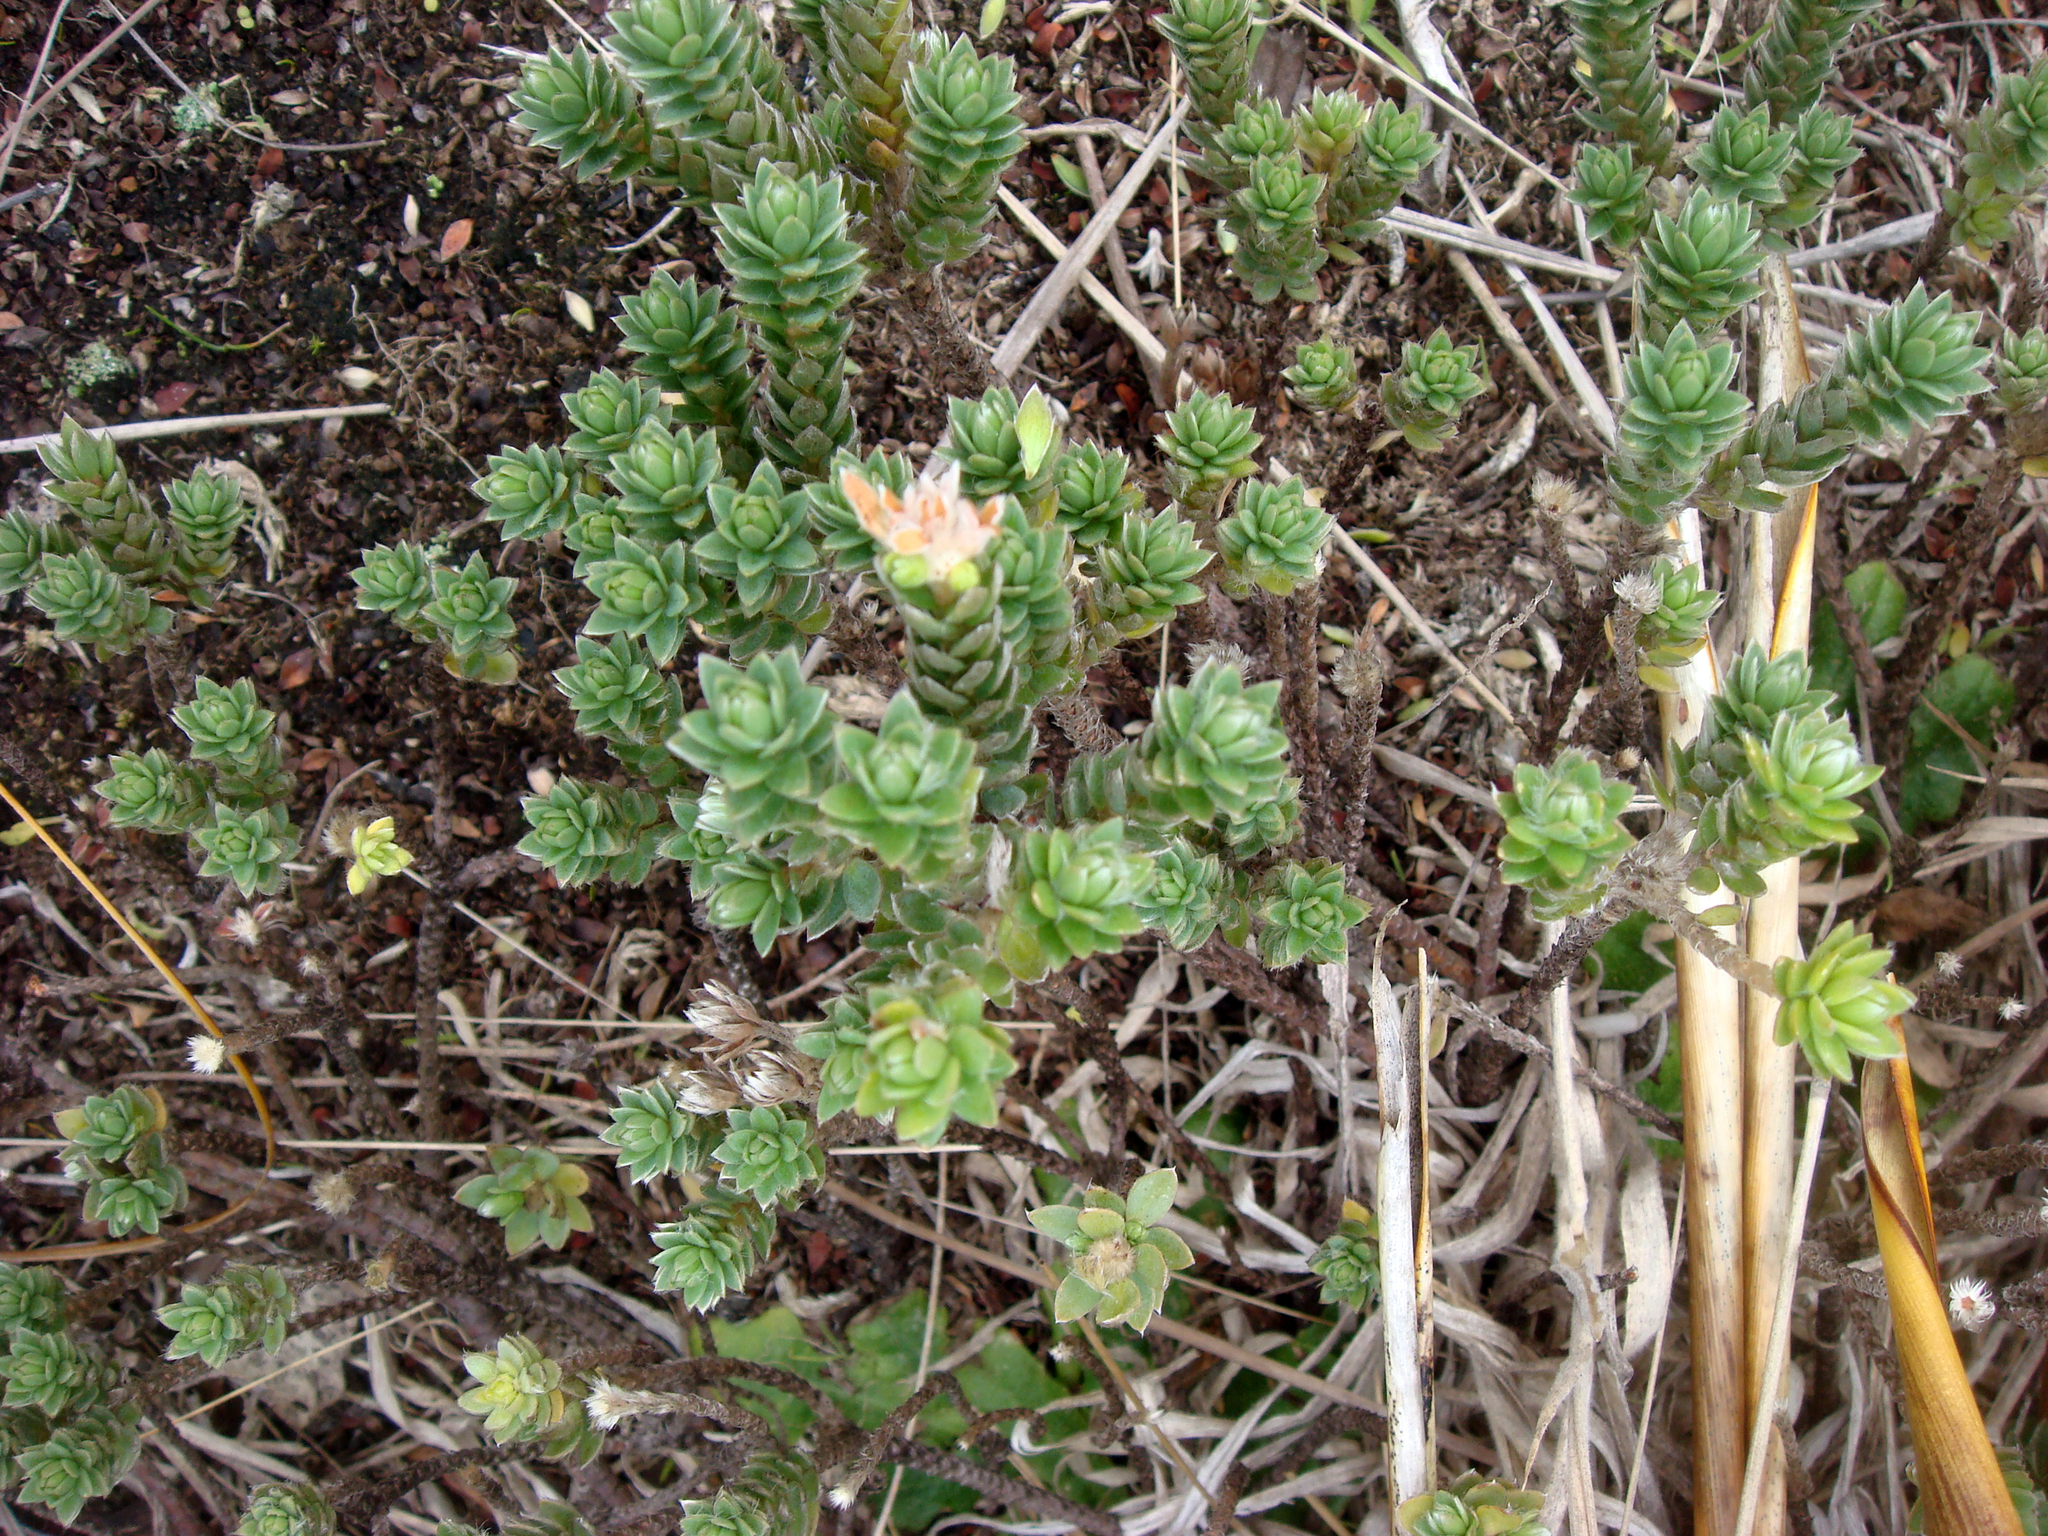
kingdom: Plantae
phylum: Tracheophyta
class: Magnoliopsida
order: Malvales
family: Thymelaeaceae
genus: Pimelea
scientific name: Pimelea villosa
